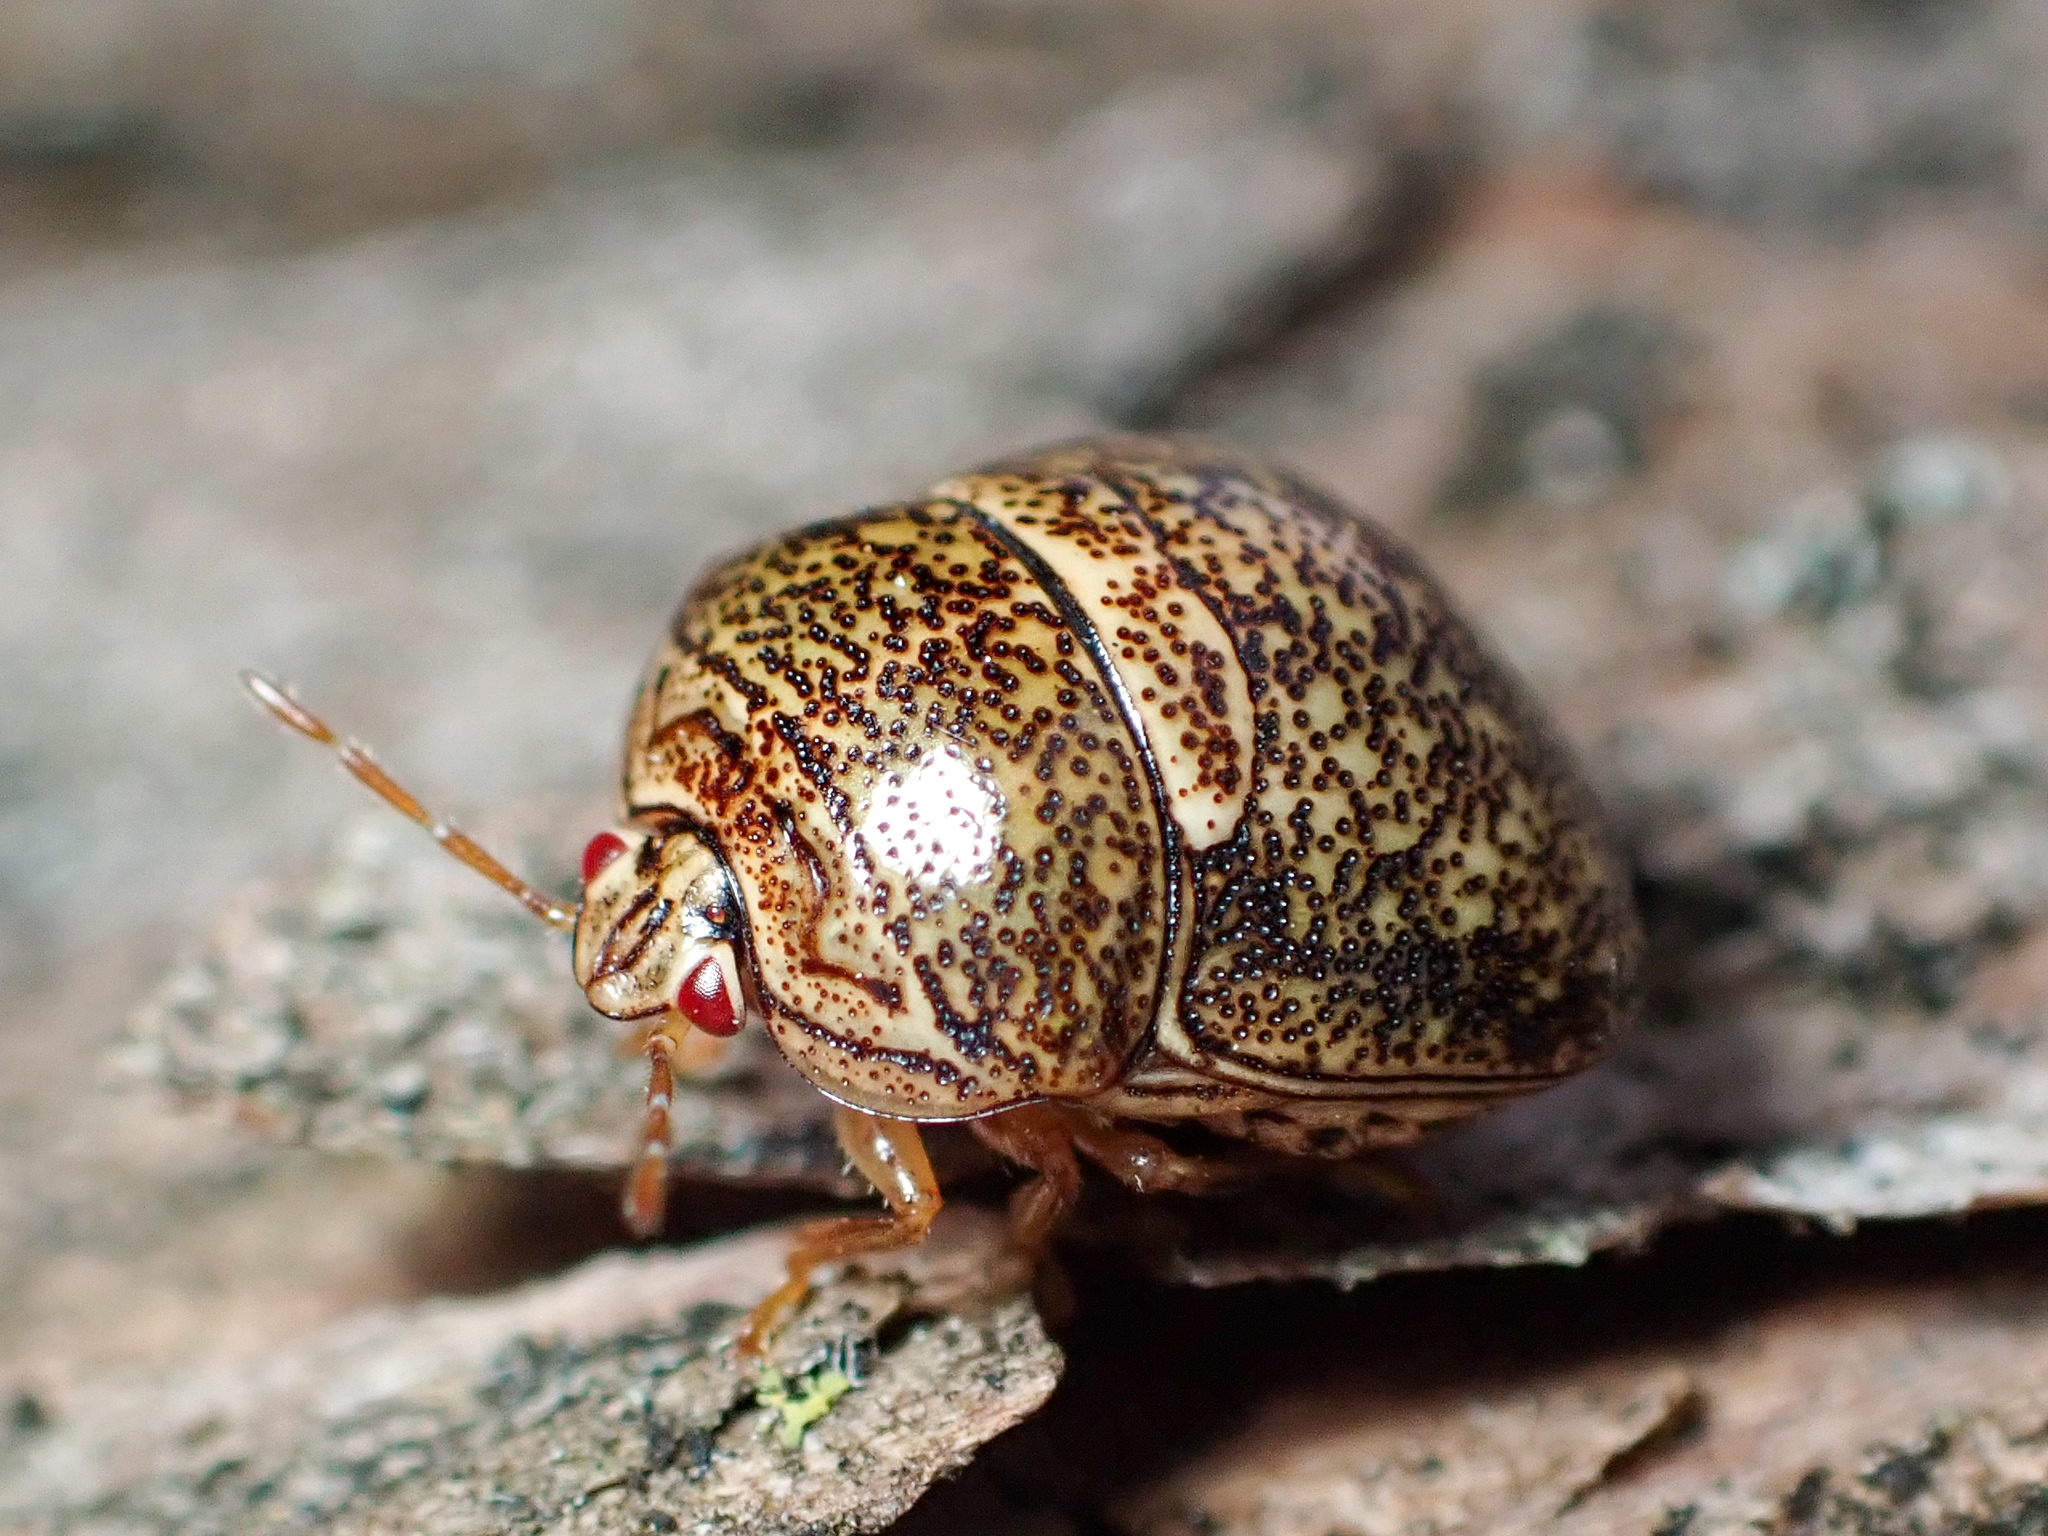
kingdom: Animalia
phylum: Arthropoda
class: Insecta
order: Hemiptera
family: Plataspidae
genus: Megacopta
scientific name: Megacopta cribraria
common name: Bean plataspid
